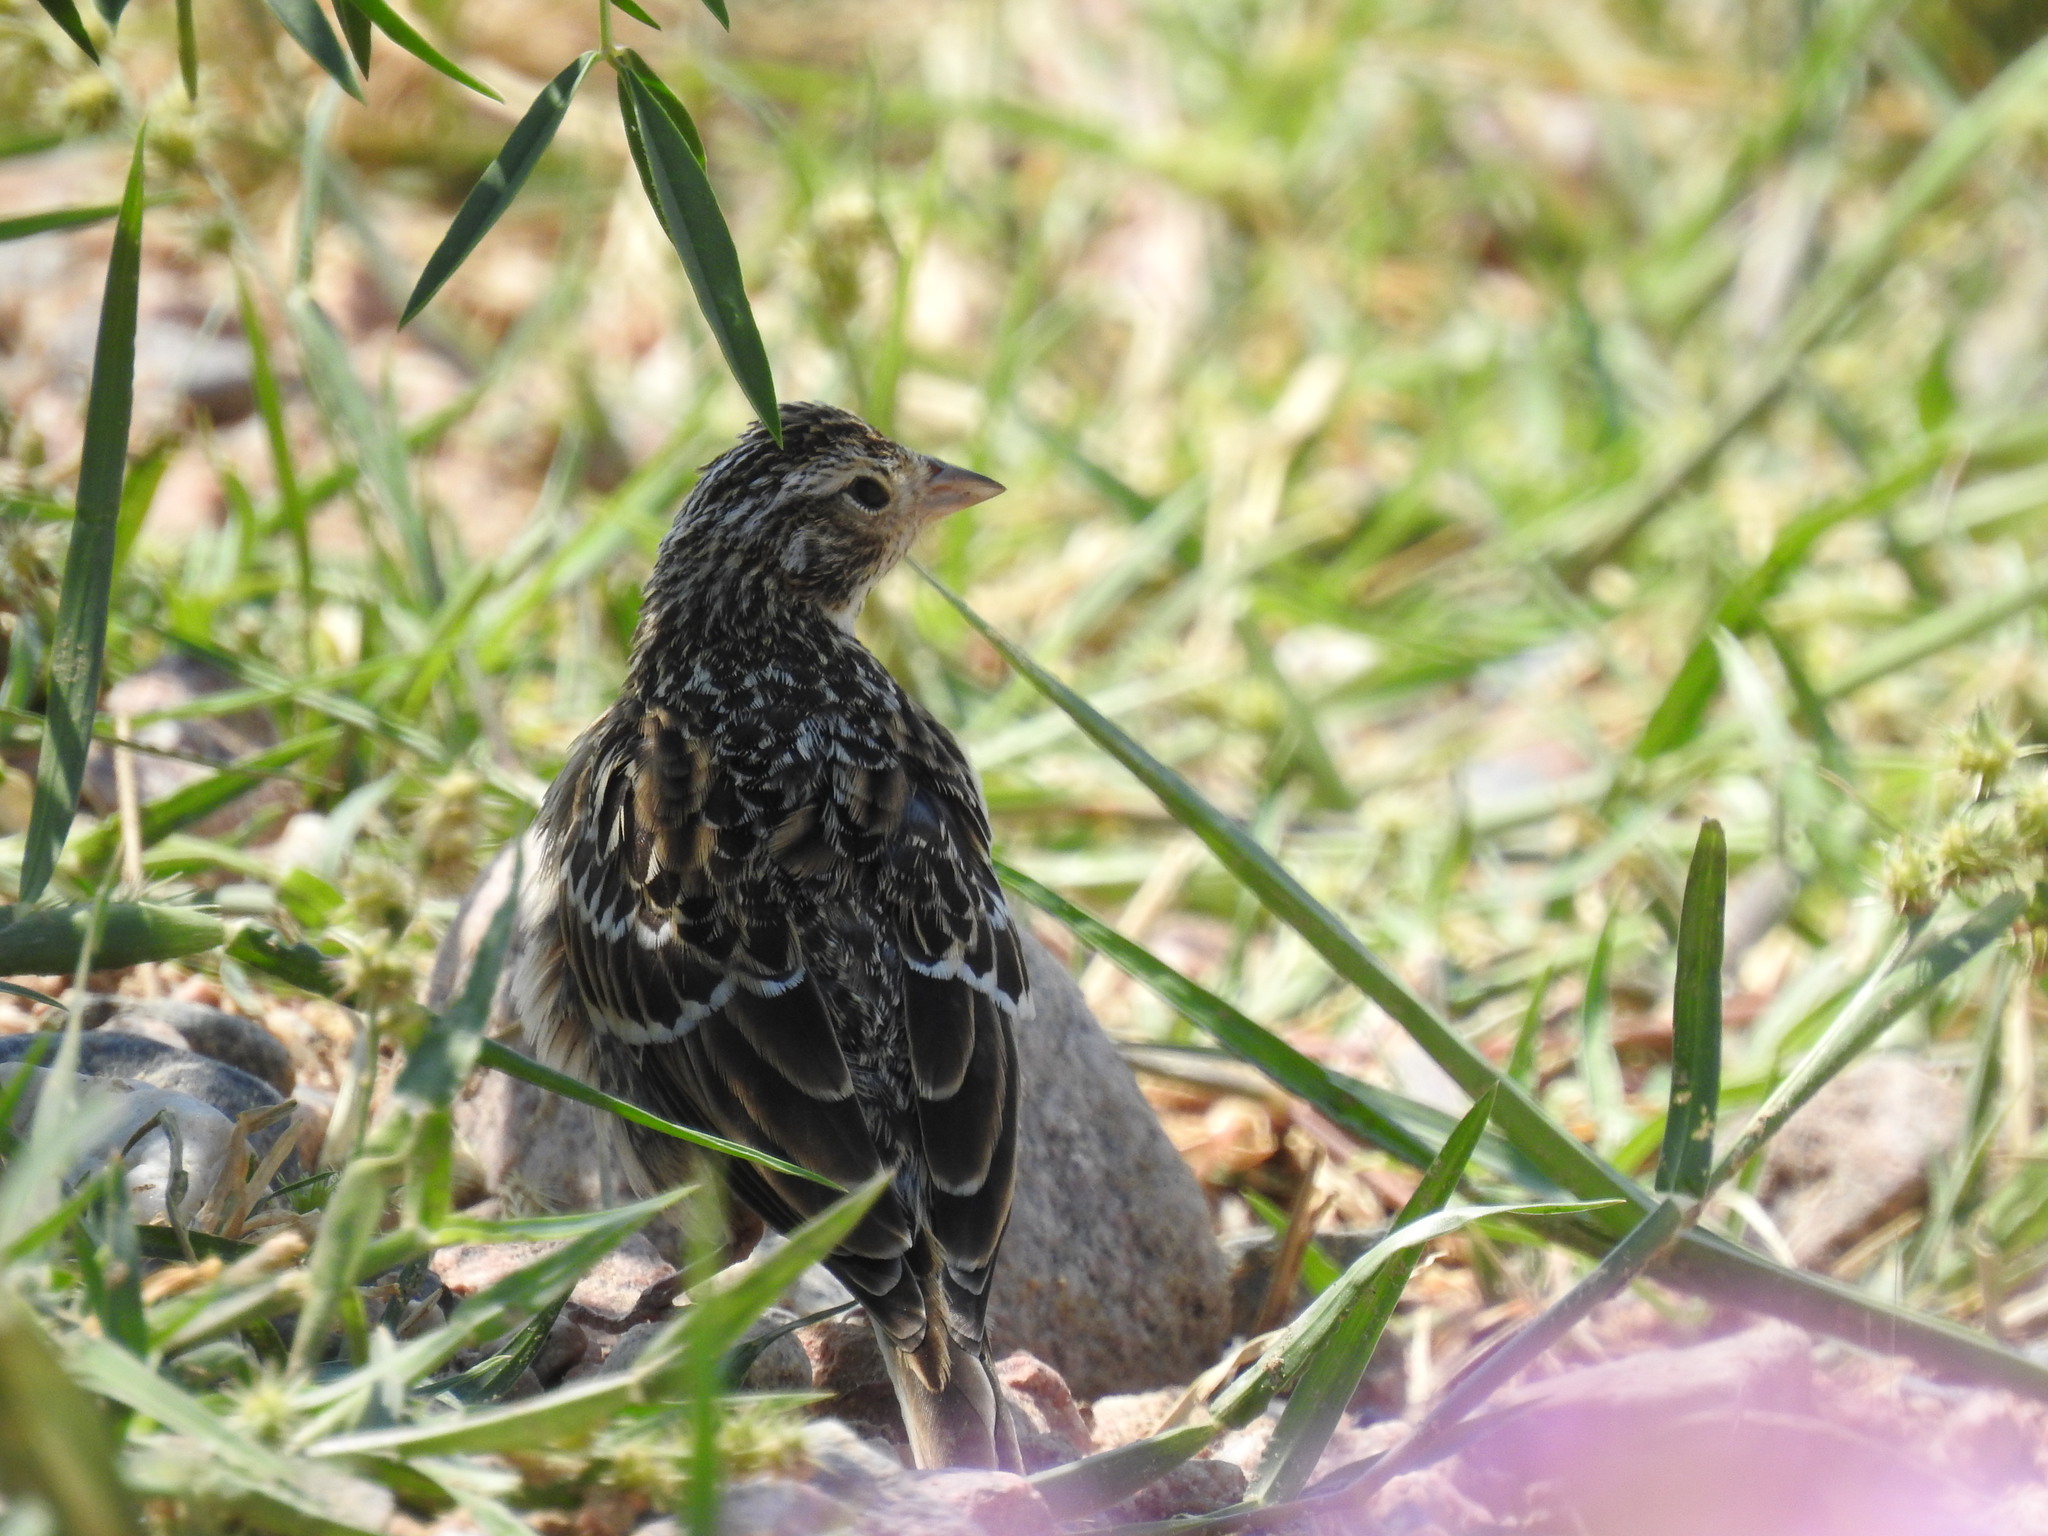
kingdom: Animalia
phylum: Chordata
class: Aves
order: Passeriformes
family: Alaudidae
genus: Eremophila
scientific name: Eremophila alpestris
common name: Horned lark
